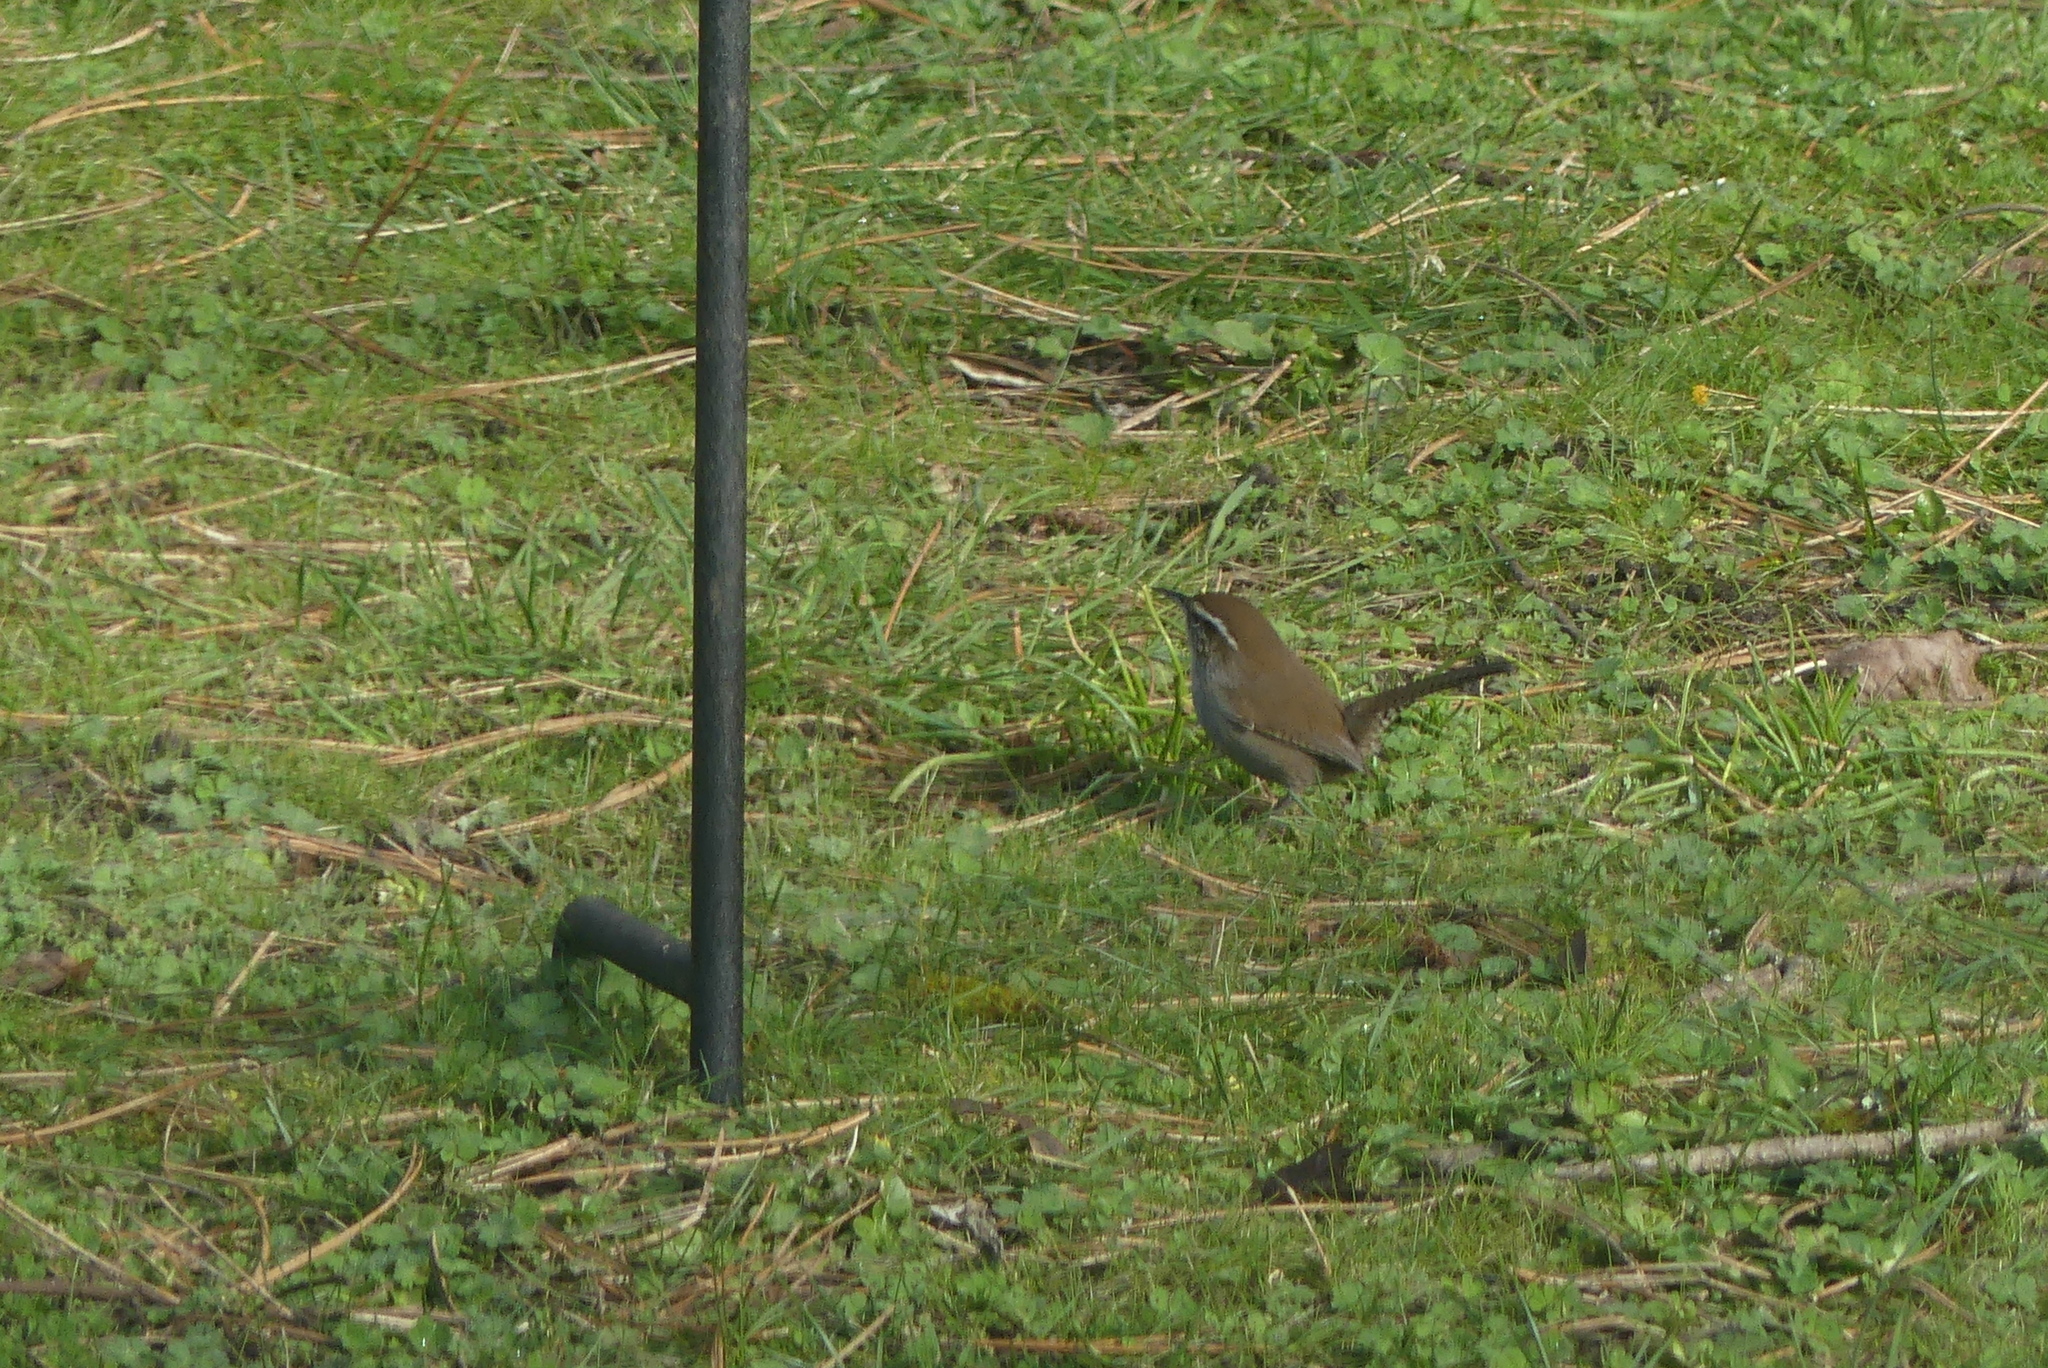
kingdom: Animalia
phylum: Chordata
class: Aves
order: Passeriformes
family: Troglodytidae
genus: Thryomanes
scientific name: Thryomanes bewickii
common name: Bewick's wren
